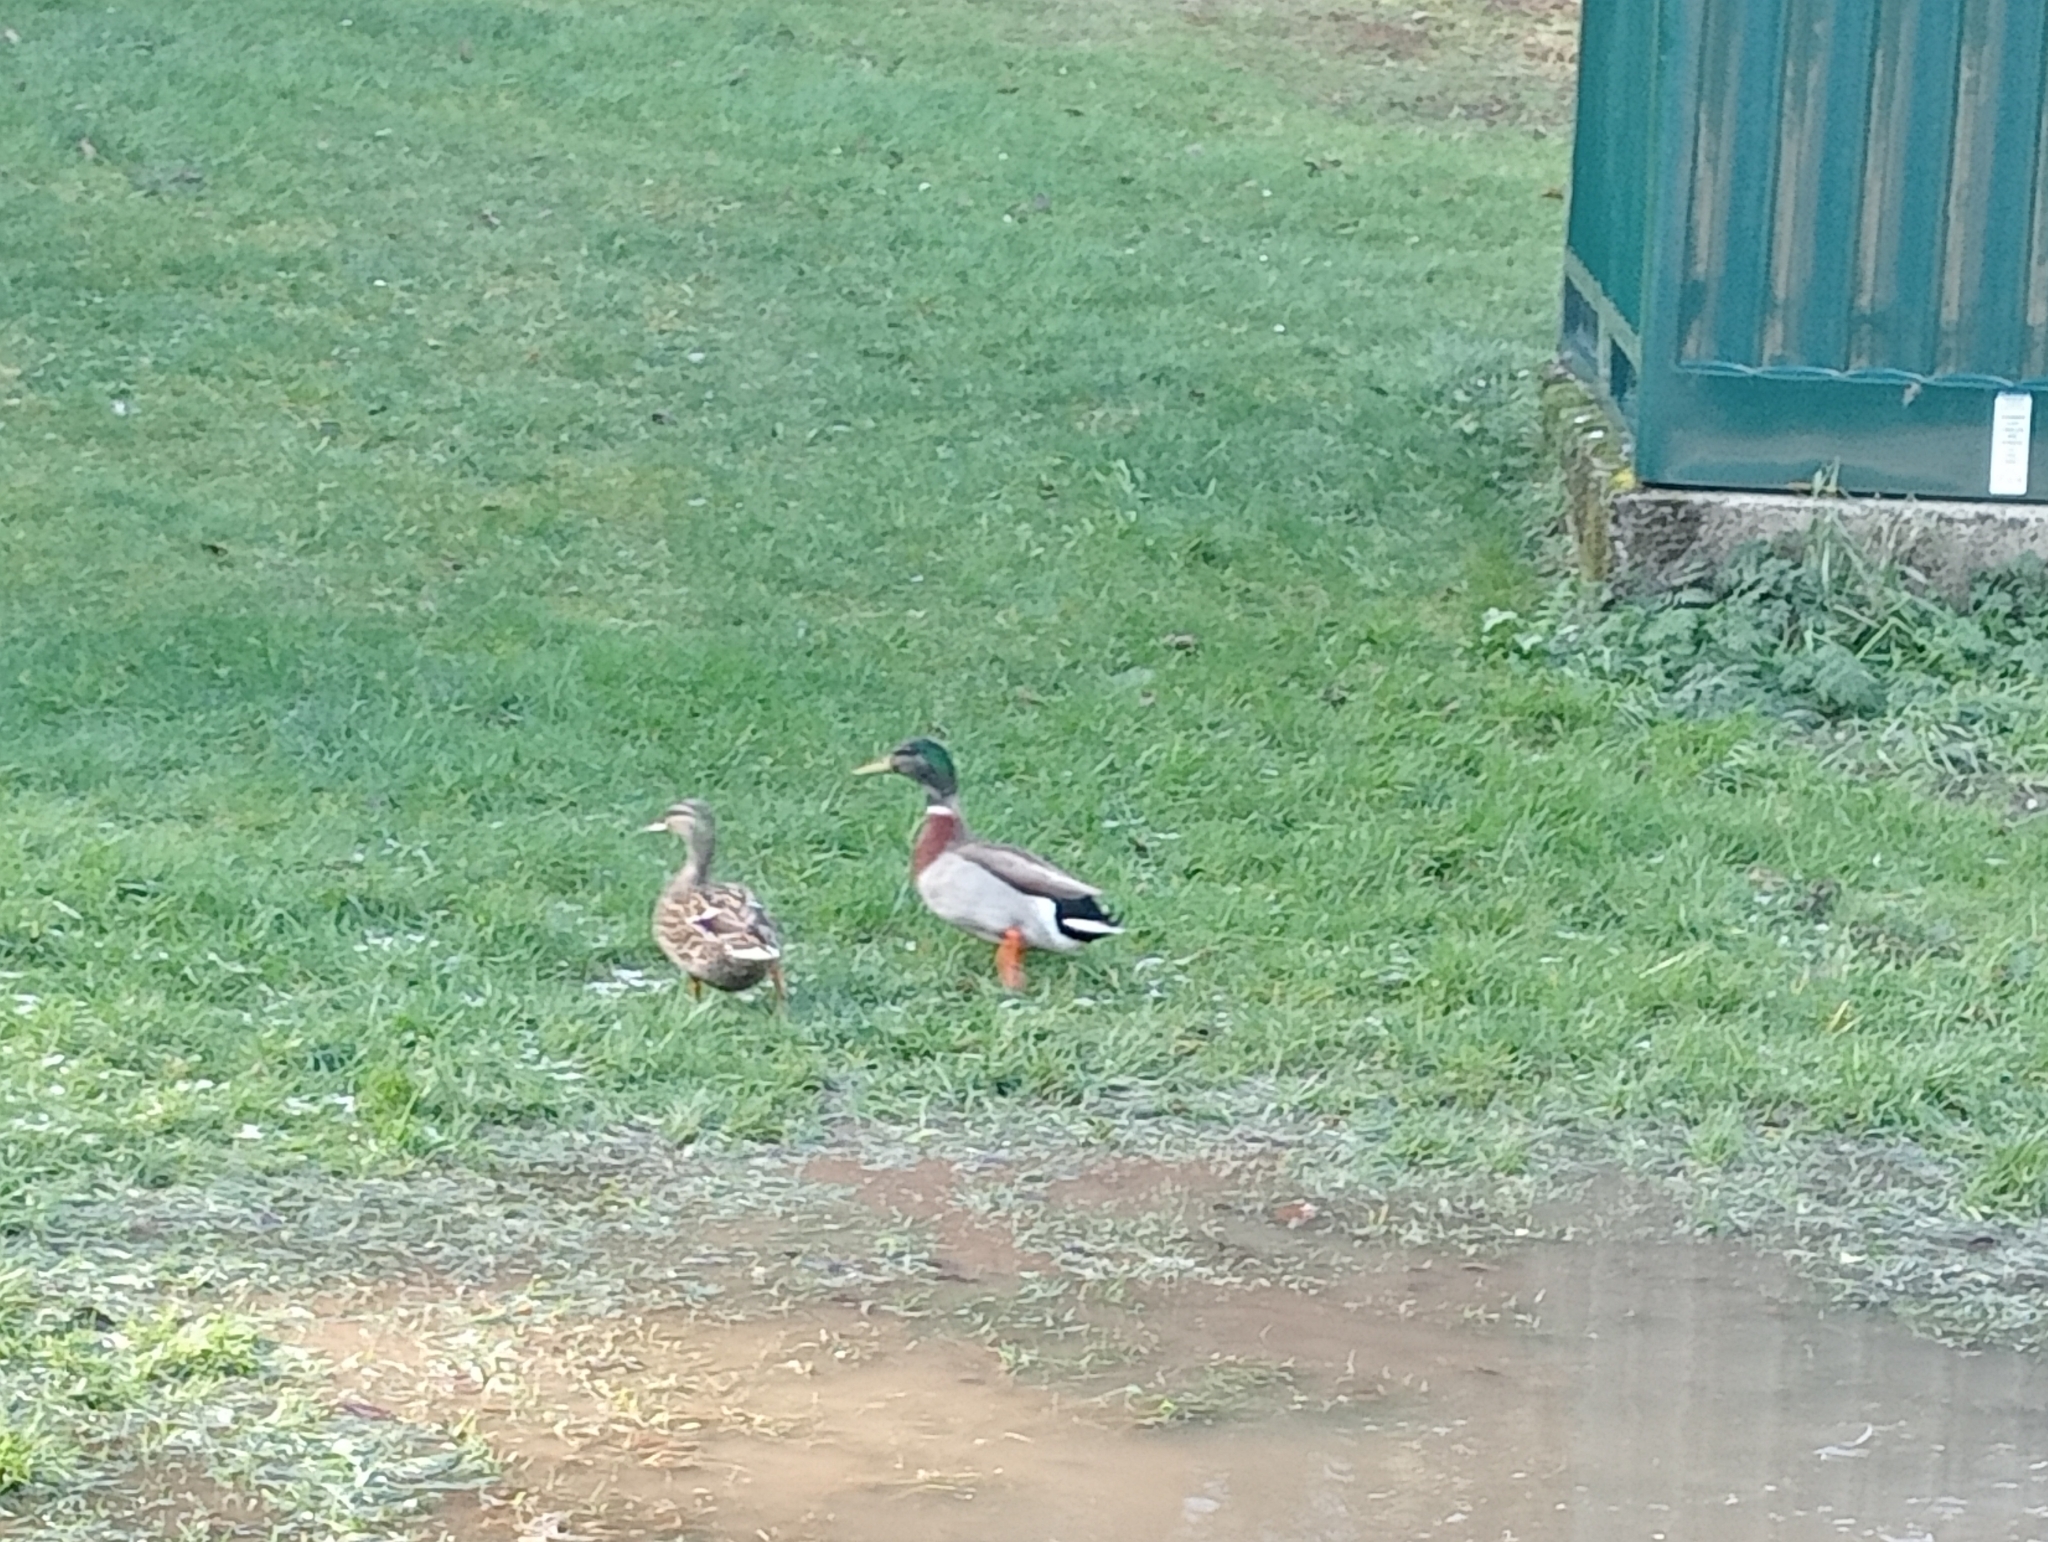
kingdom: Animalia
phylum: Chordata
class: Aves
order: Anseriformes
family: Anatidae
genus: Anas
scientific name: Anas platyrhynchos
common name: Mallard
